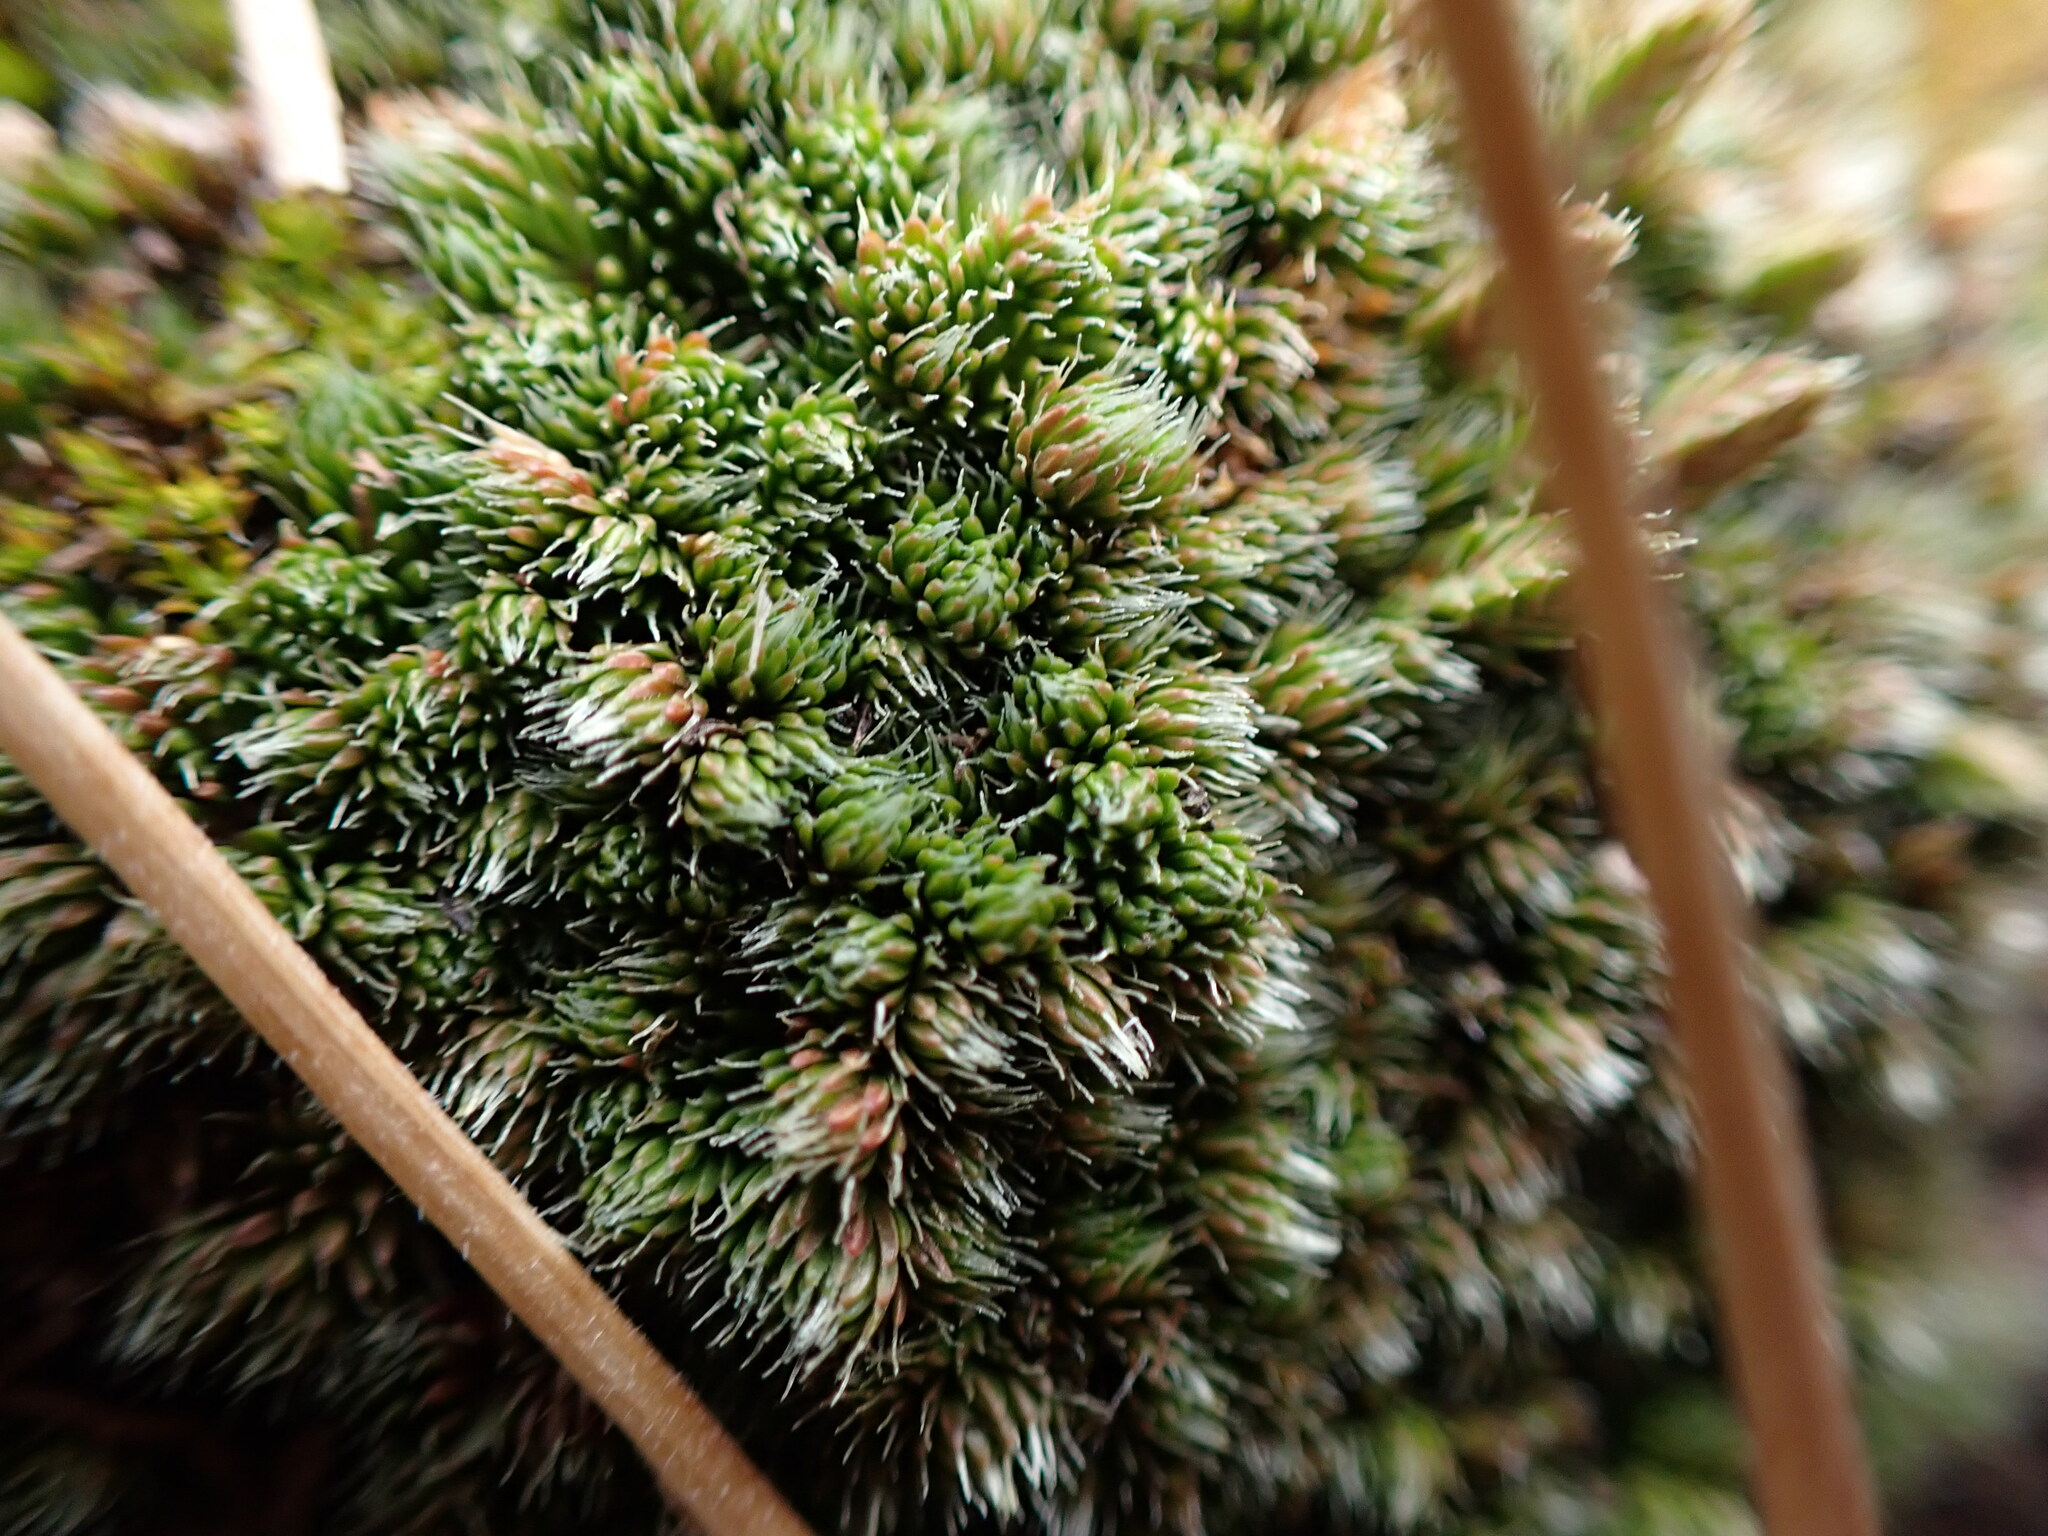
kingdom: Plantae
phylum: Tracheophyta
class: Lycopodiopsida
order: Selaginellales
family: Selaginellaceae
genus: Selaginella
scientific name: Selaginella densa
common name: Mountain spike-moss
